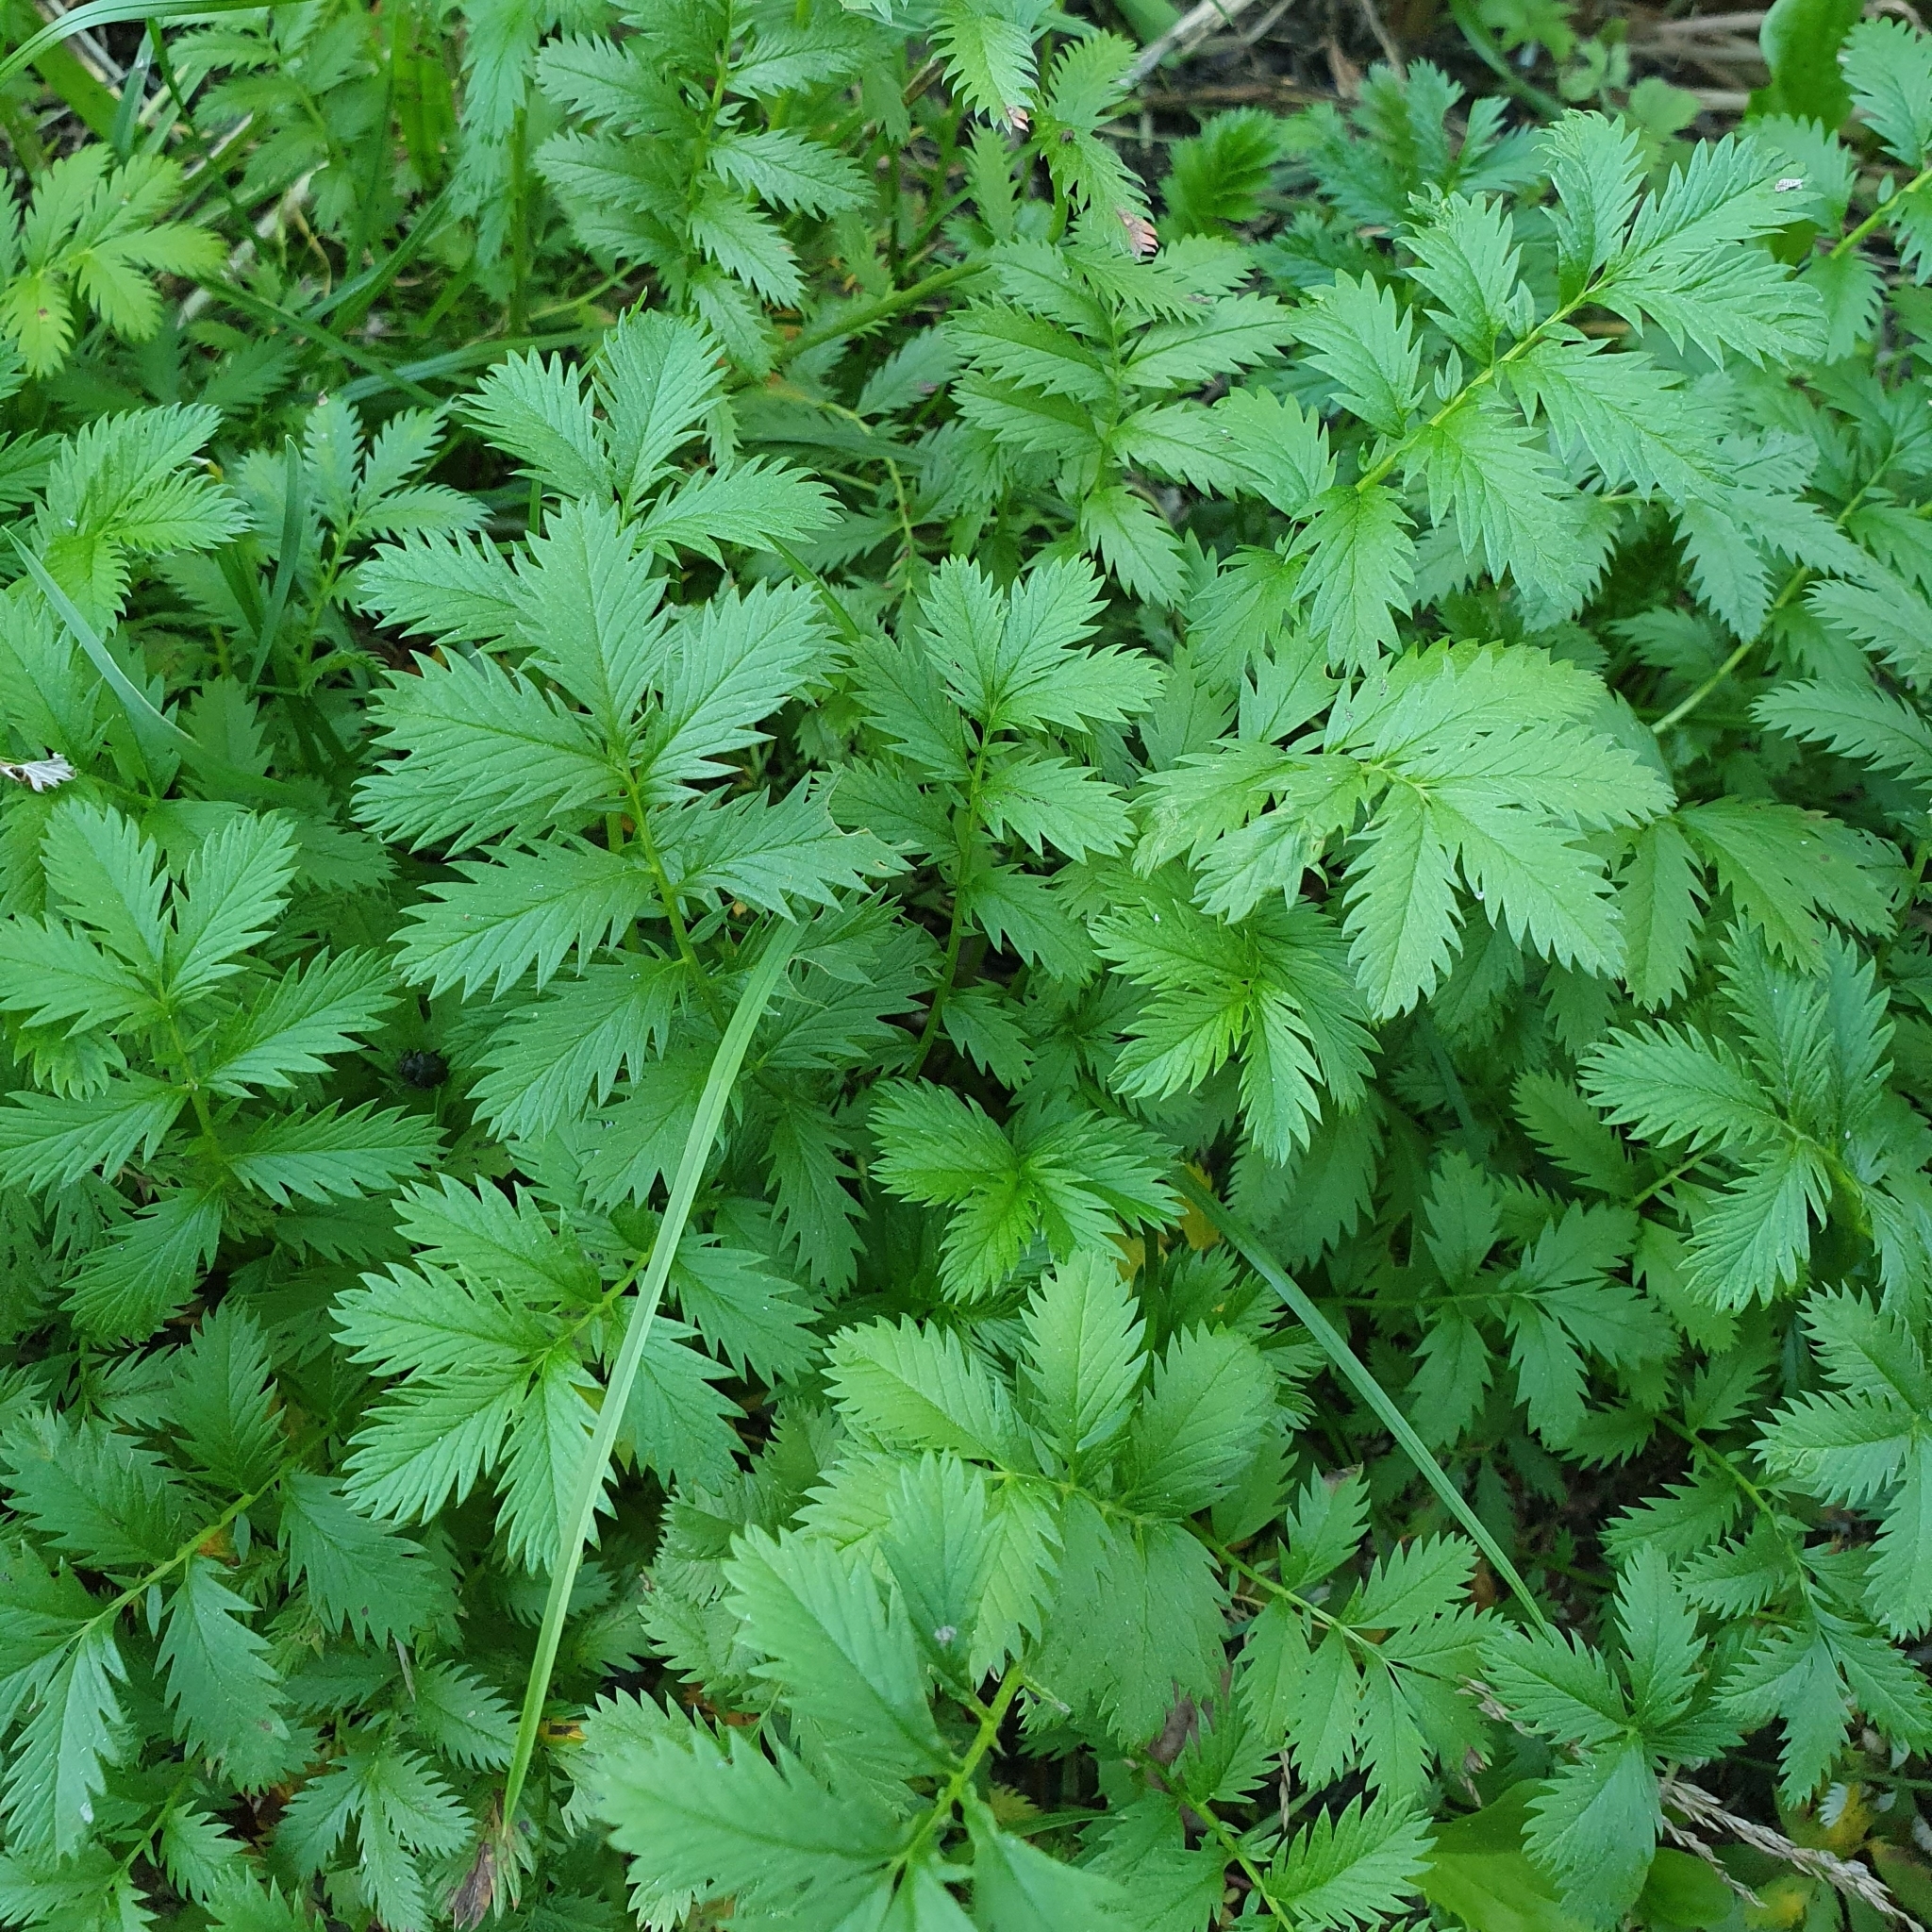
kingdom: Plantae
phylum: Tracheophyta
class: Magnoliopsida
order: Rosales
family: Rosaceae
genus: Argentina
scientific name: Argentina anserina
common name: Common silverweed
